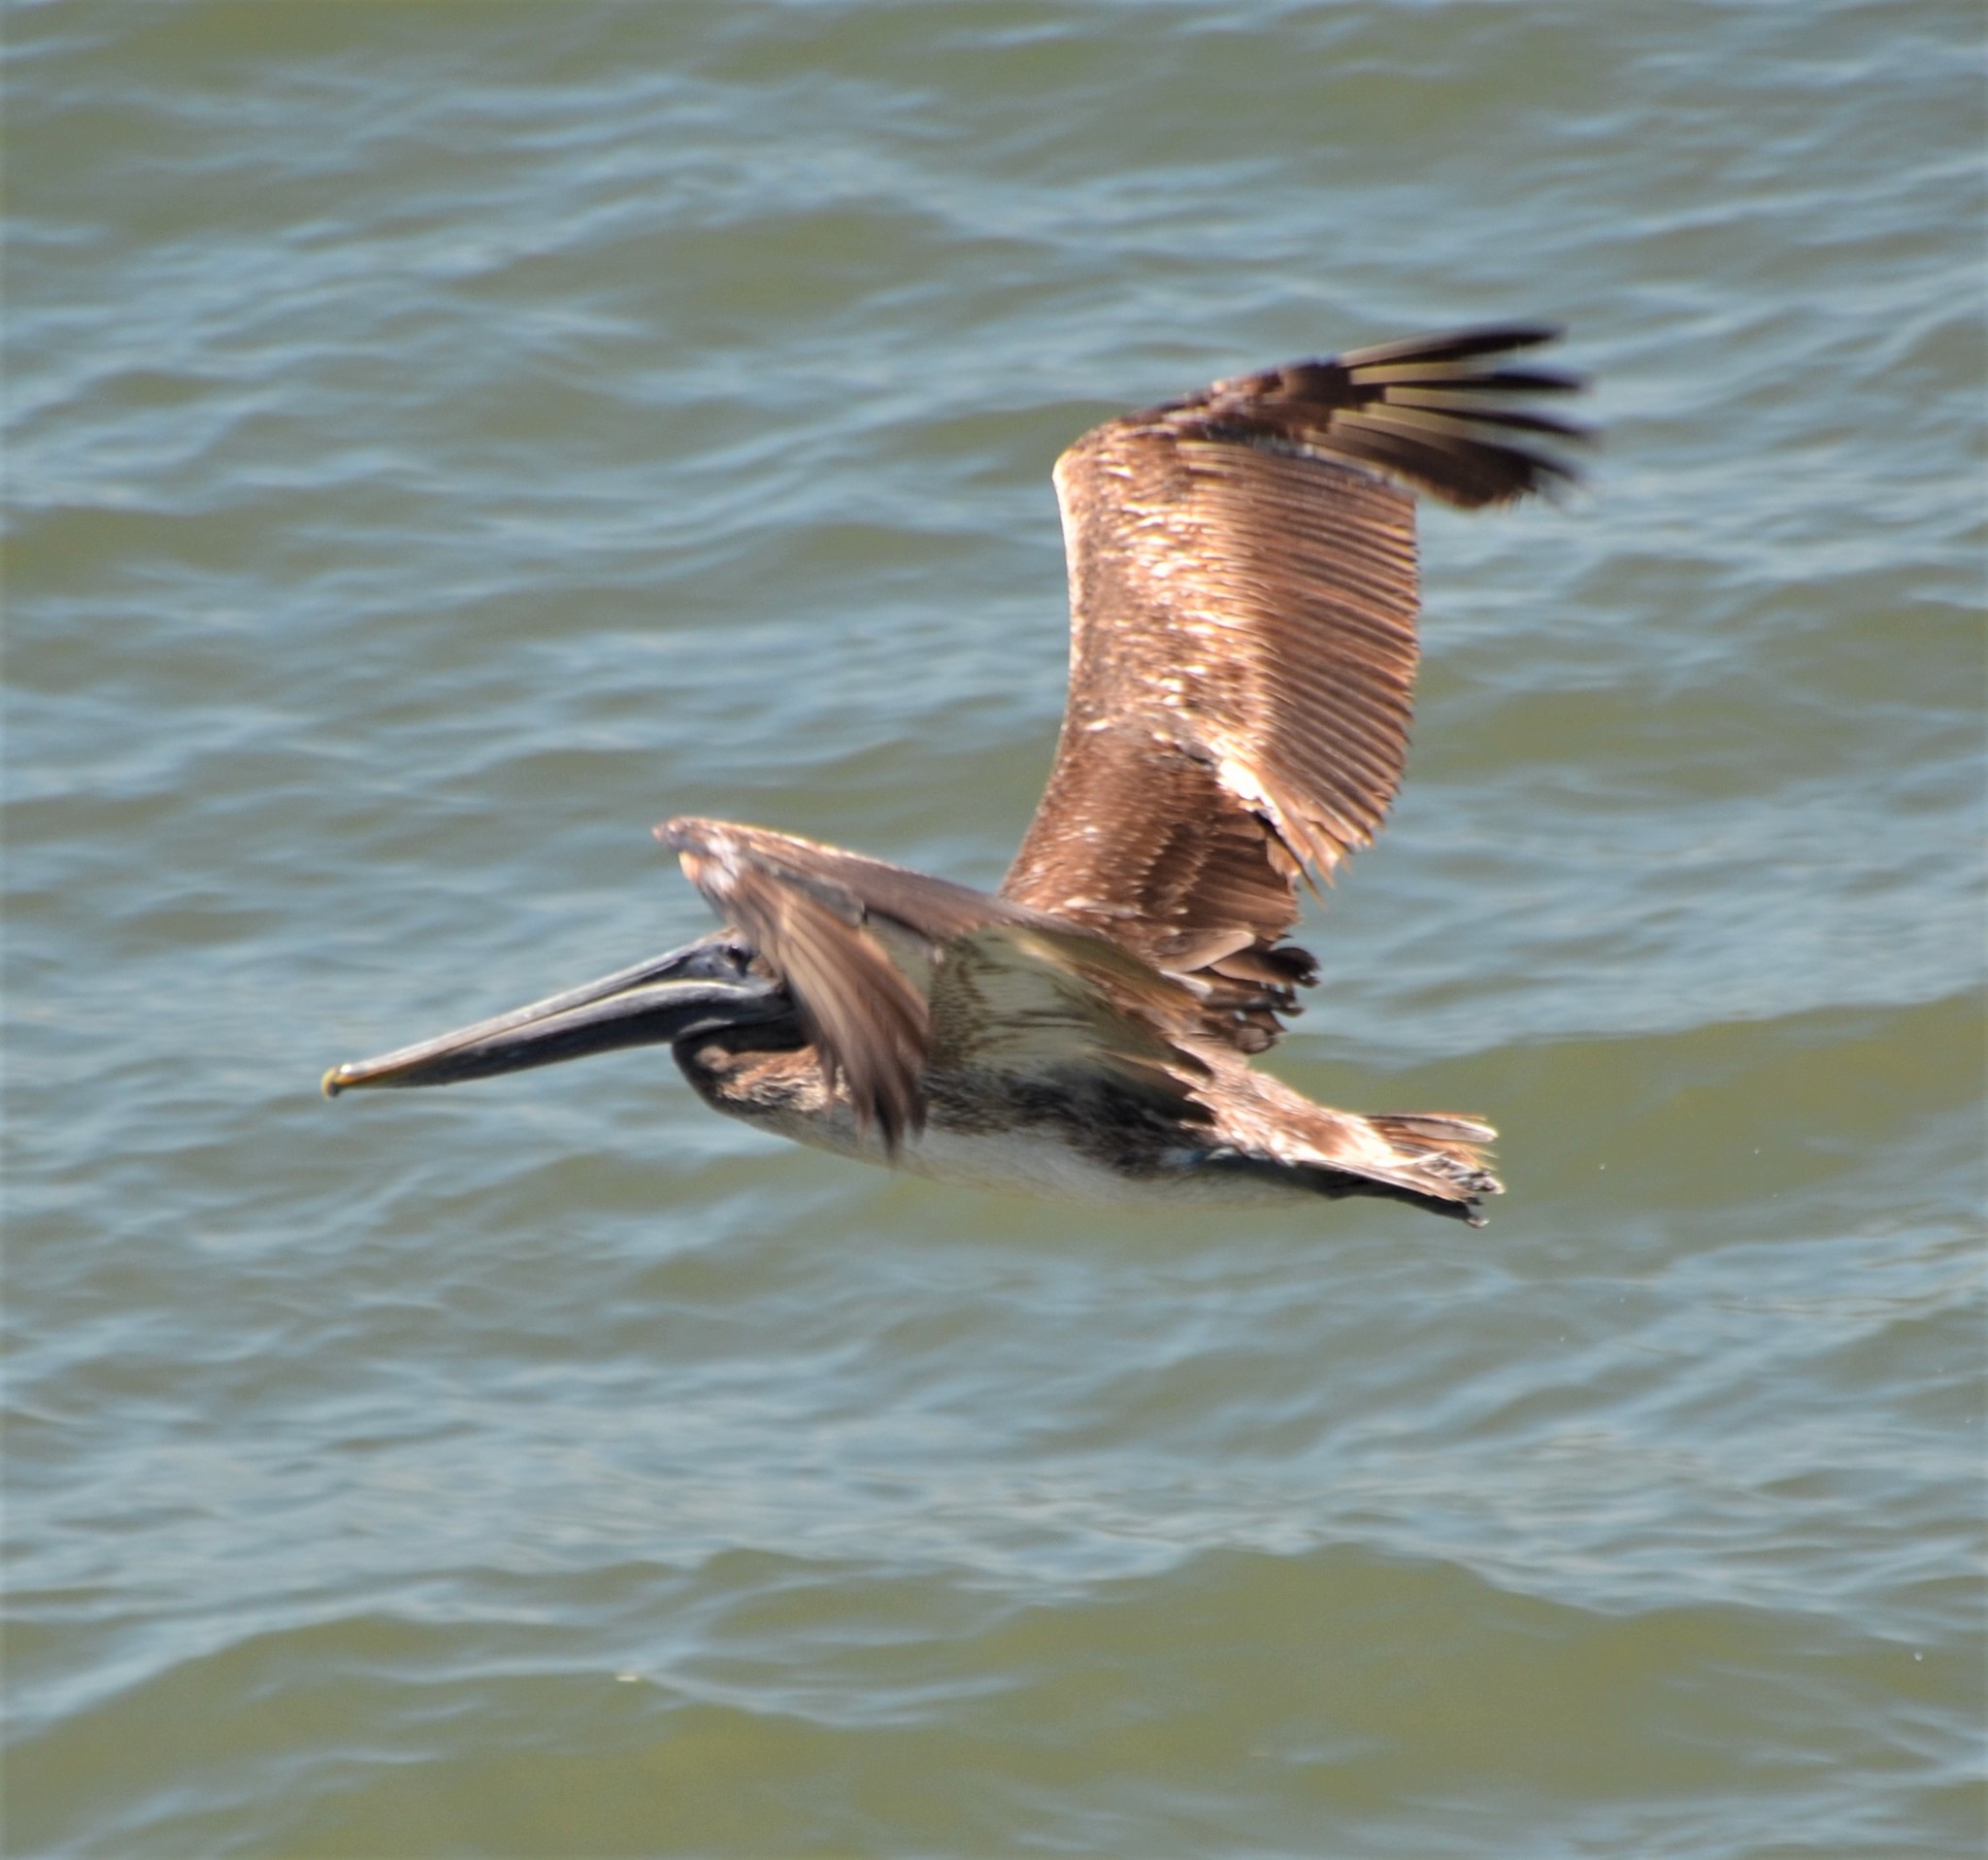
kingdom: Animalia
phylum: Chordata
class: Aves
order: Pelecaniformes
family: Pelecanidae
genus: Pelecanus
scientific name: Pelecanus occidentalis
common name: Brown pelican
